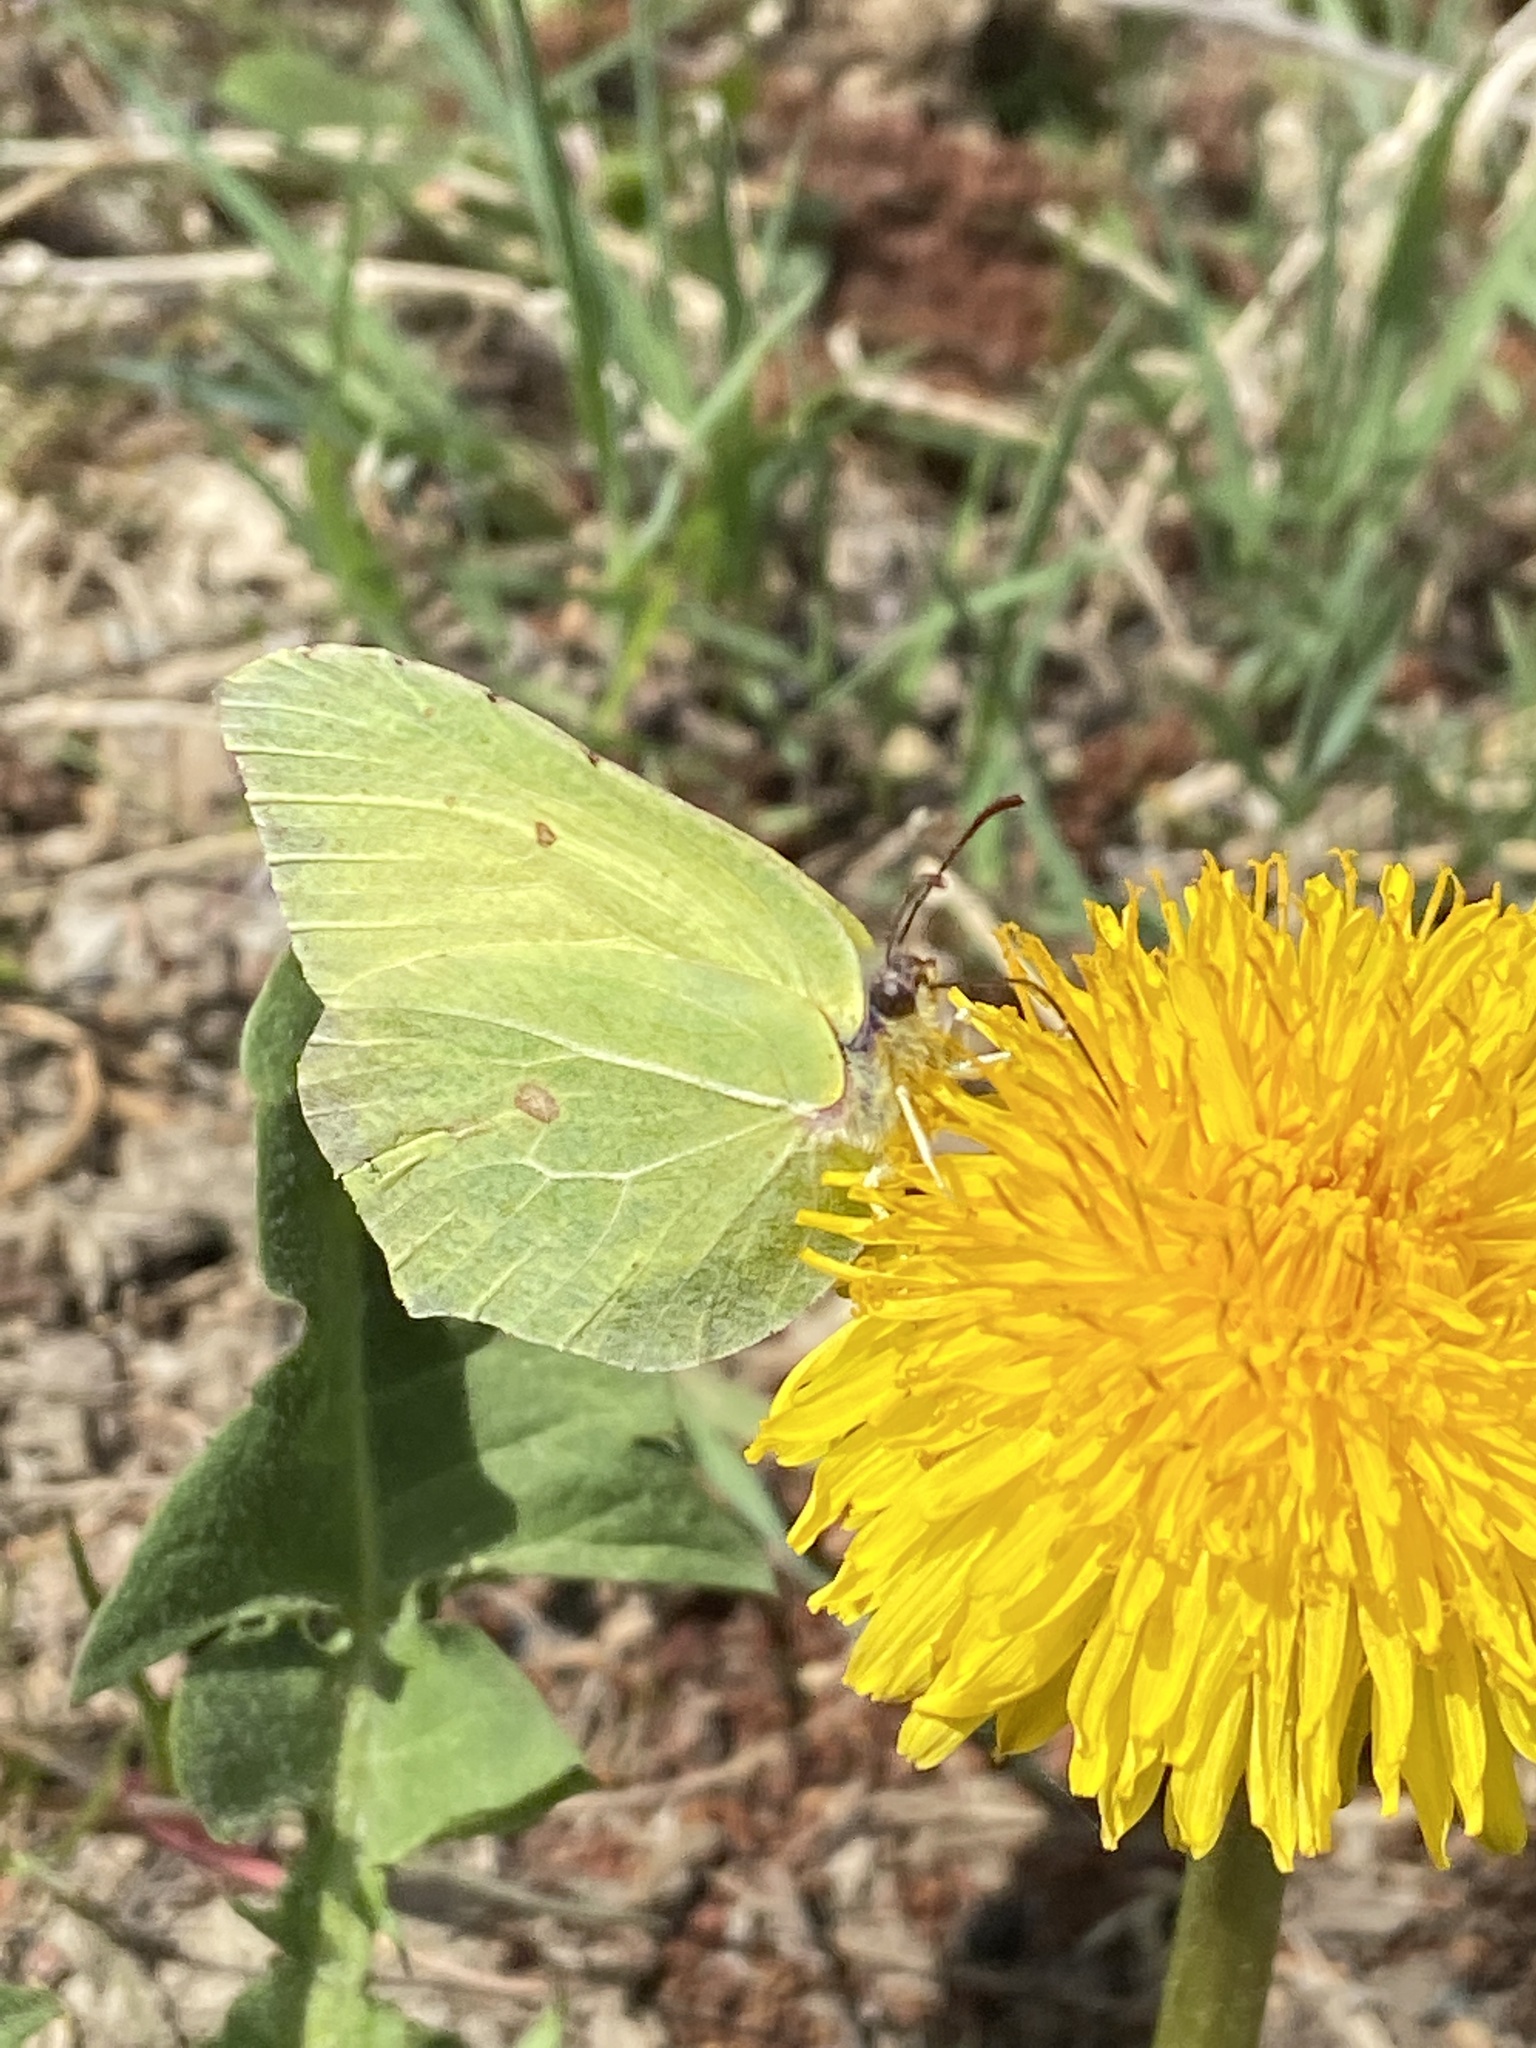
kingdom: Animalia
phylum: Arthropoda
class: Insecta
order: Lepidoptera
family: Pieridae
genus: Gonepteryx
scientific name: Gonepteryx rhamni
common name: Brimstone
